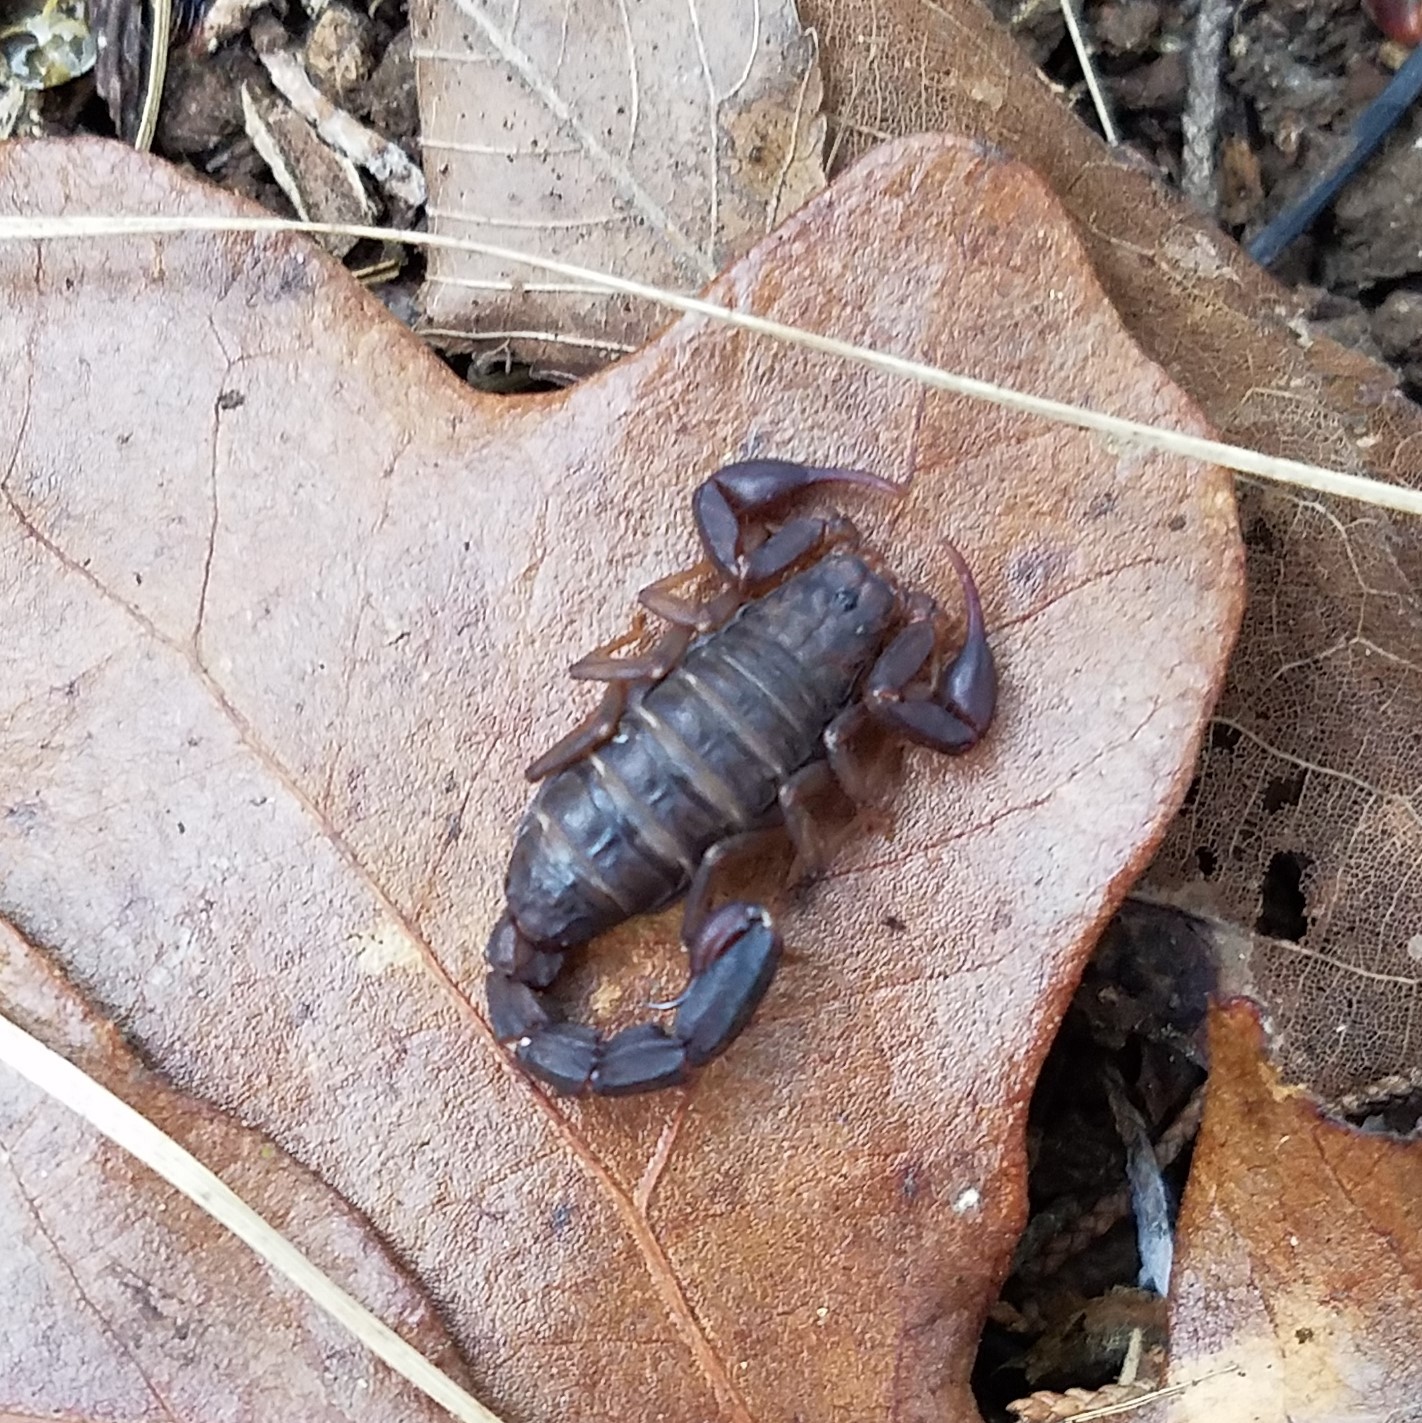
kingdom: Animalia
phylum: Arthropoda
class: Arachnida
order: Scorpiones
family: Vaejovidae
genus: Vaejovis
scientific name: Vaejovis carolinianus
